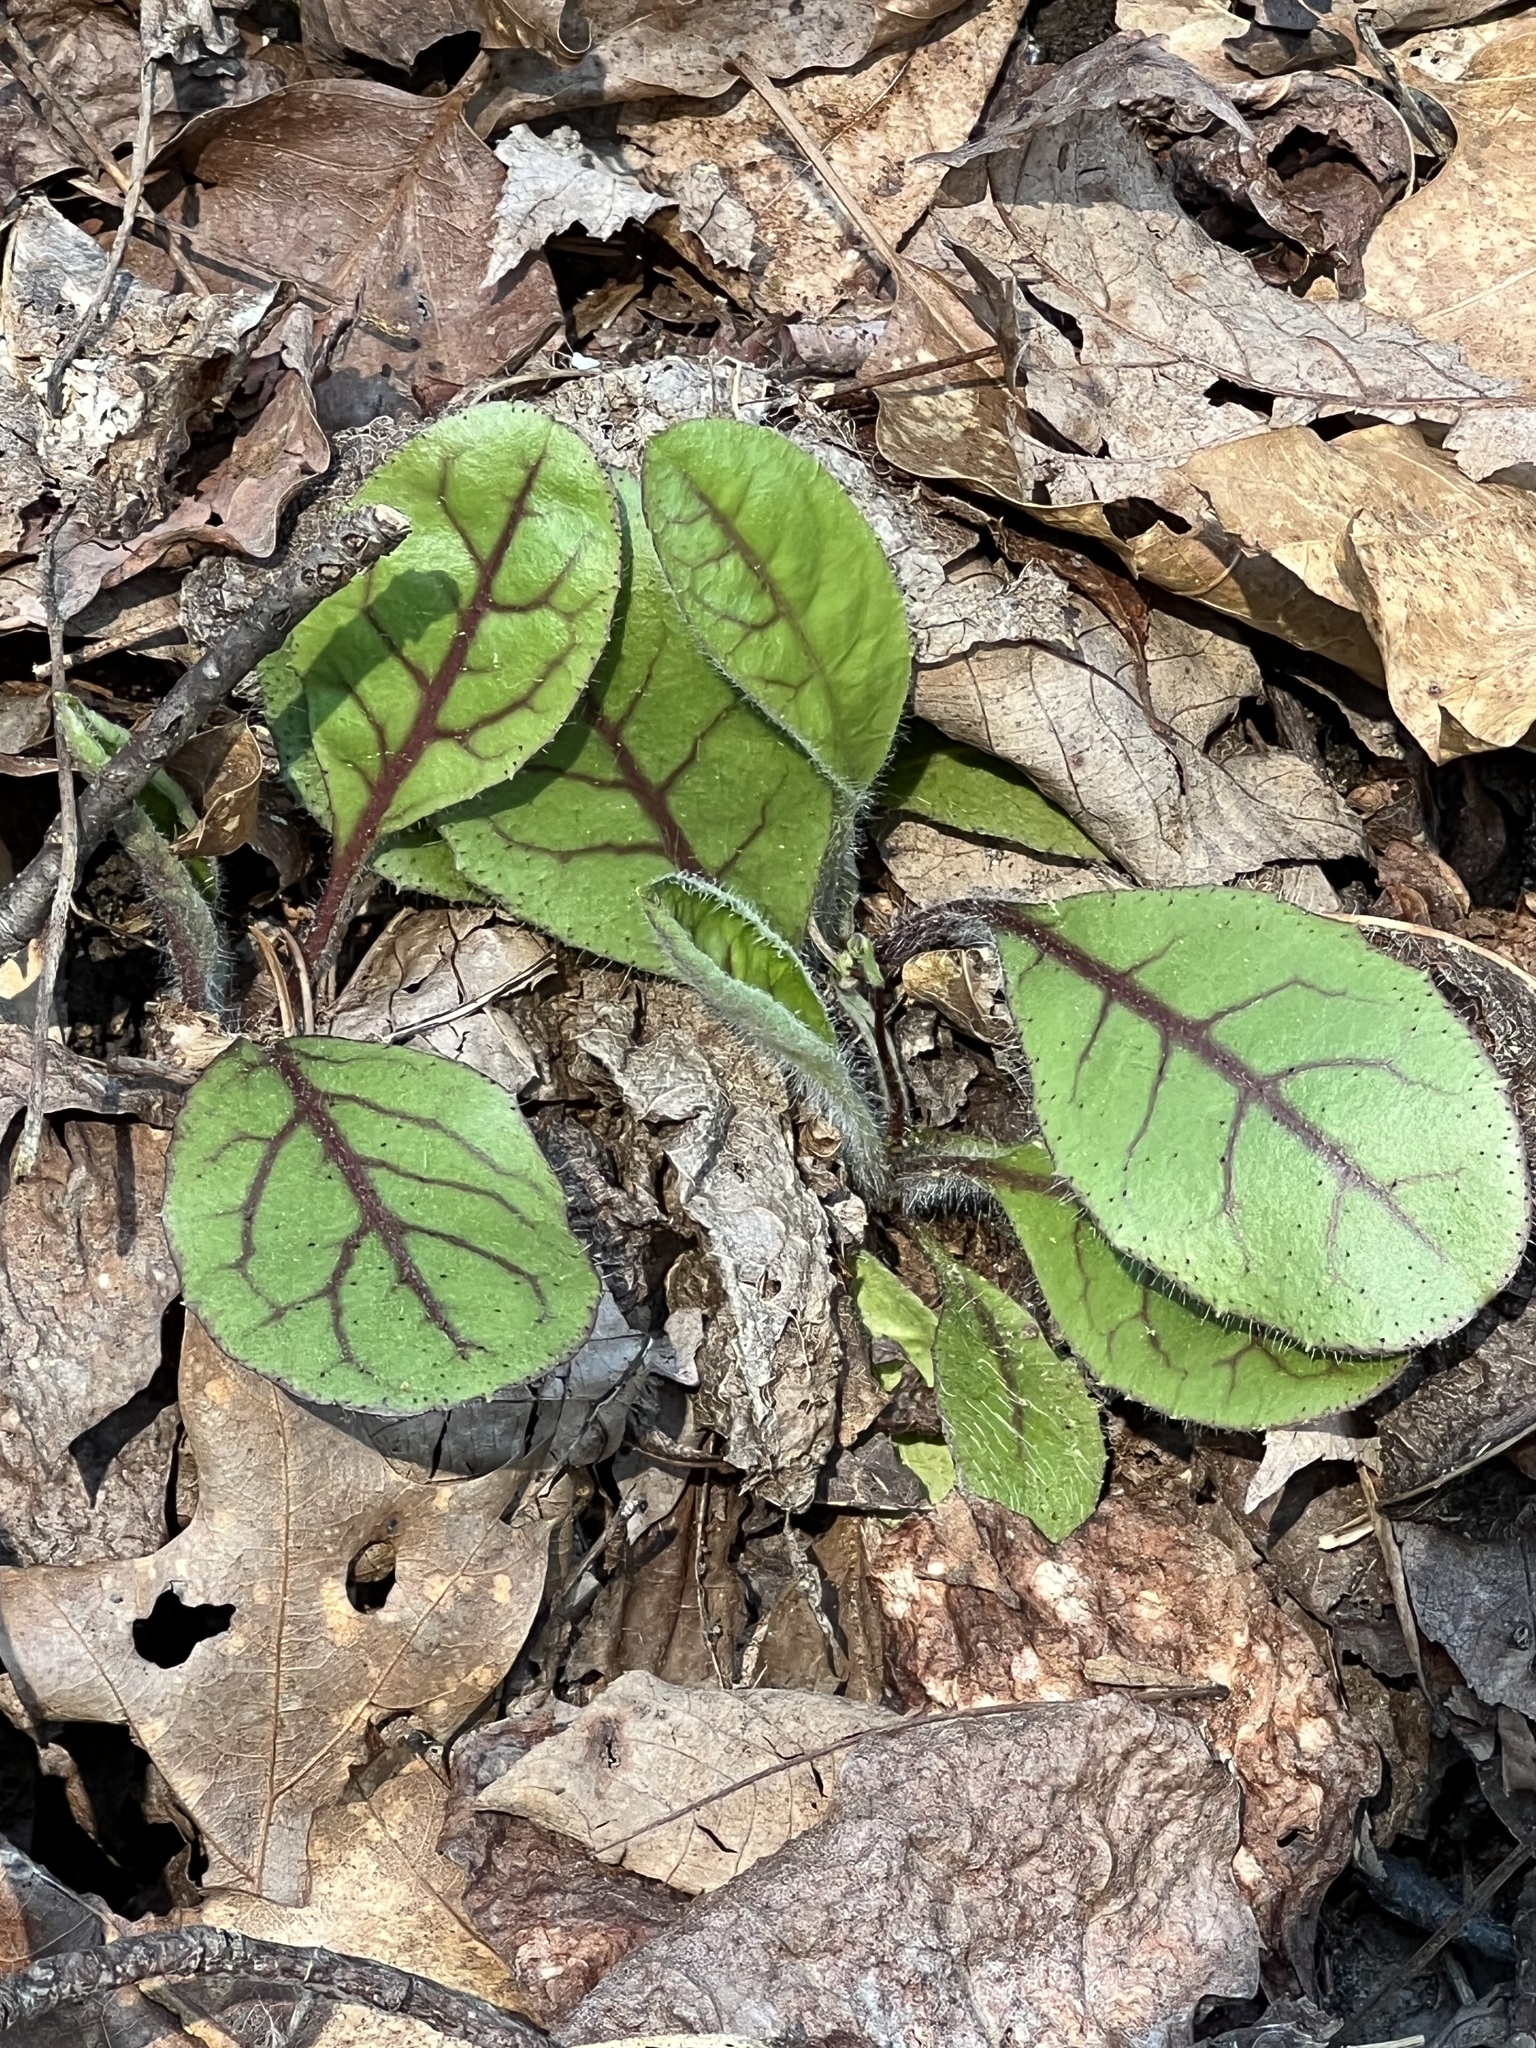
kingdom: Plantae
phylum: Tracheophyta
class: Magnoliopsida
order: Asterales
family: Asteraceae
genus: Hieracium
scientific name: Hieracium venosum
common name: Rattlesnake hawkweed
